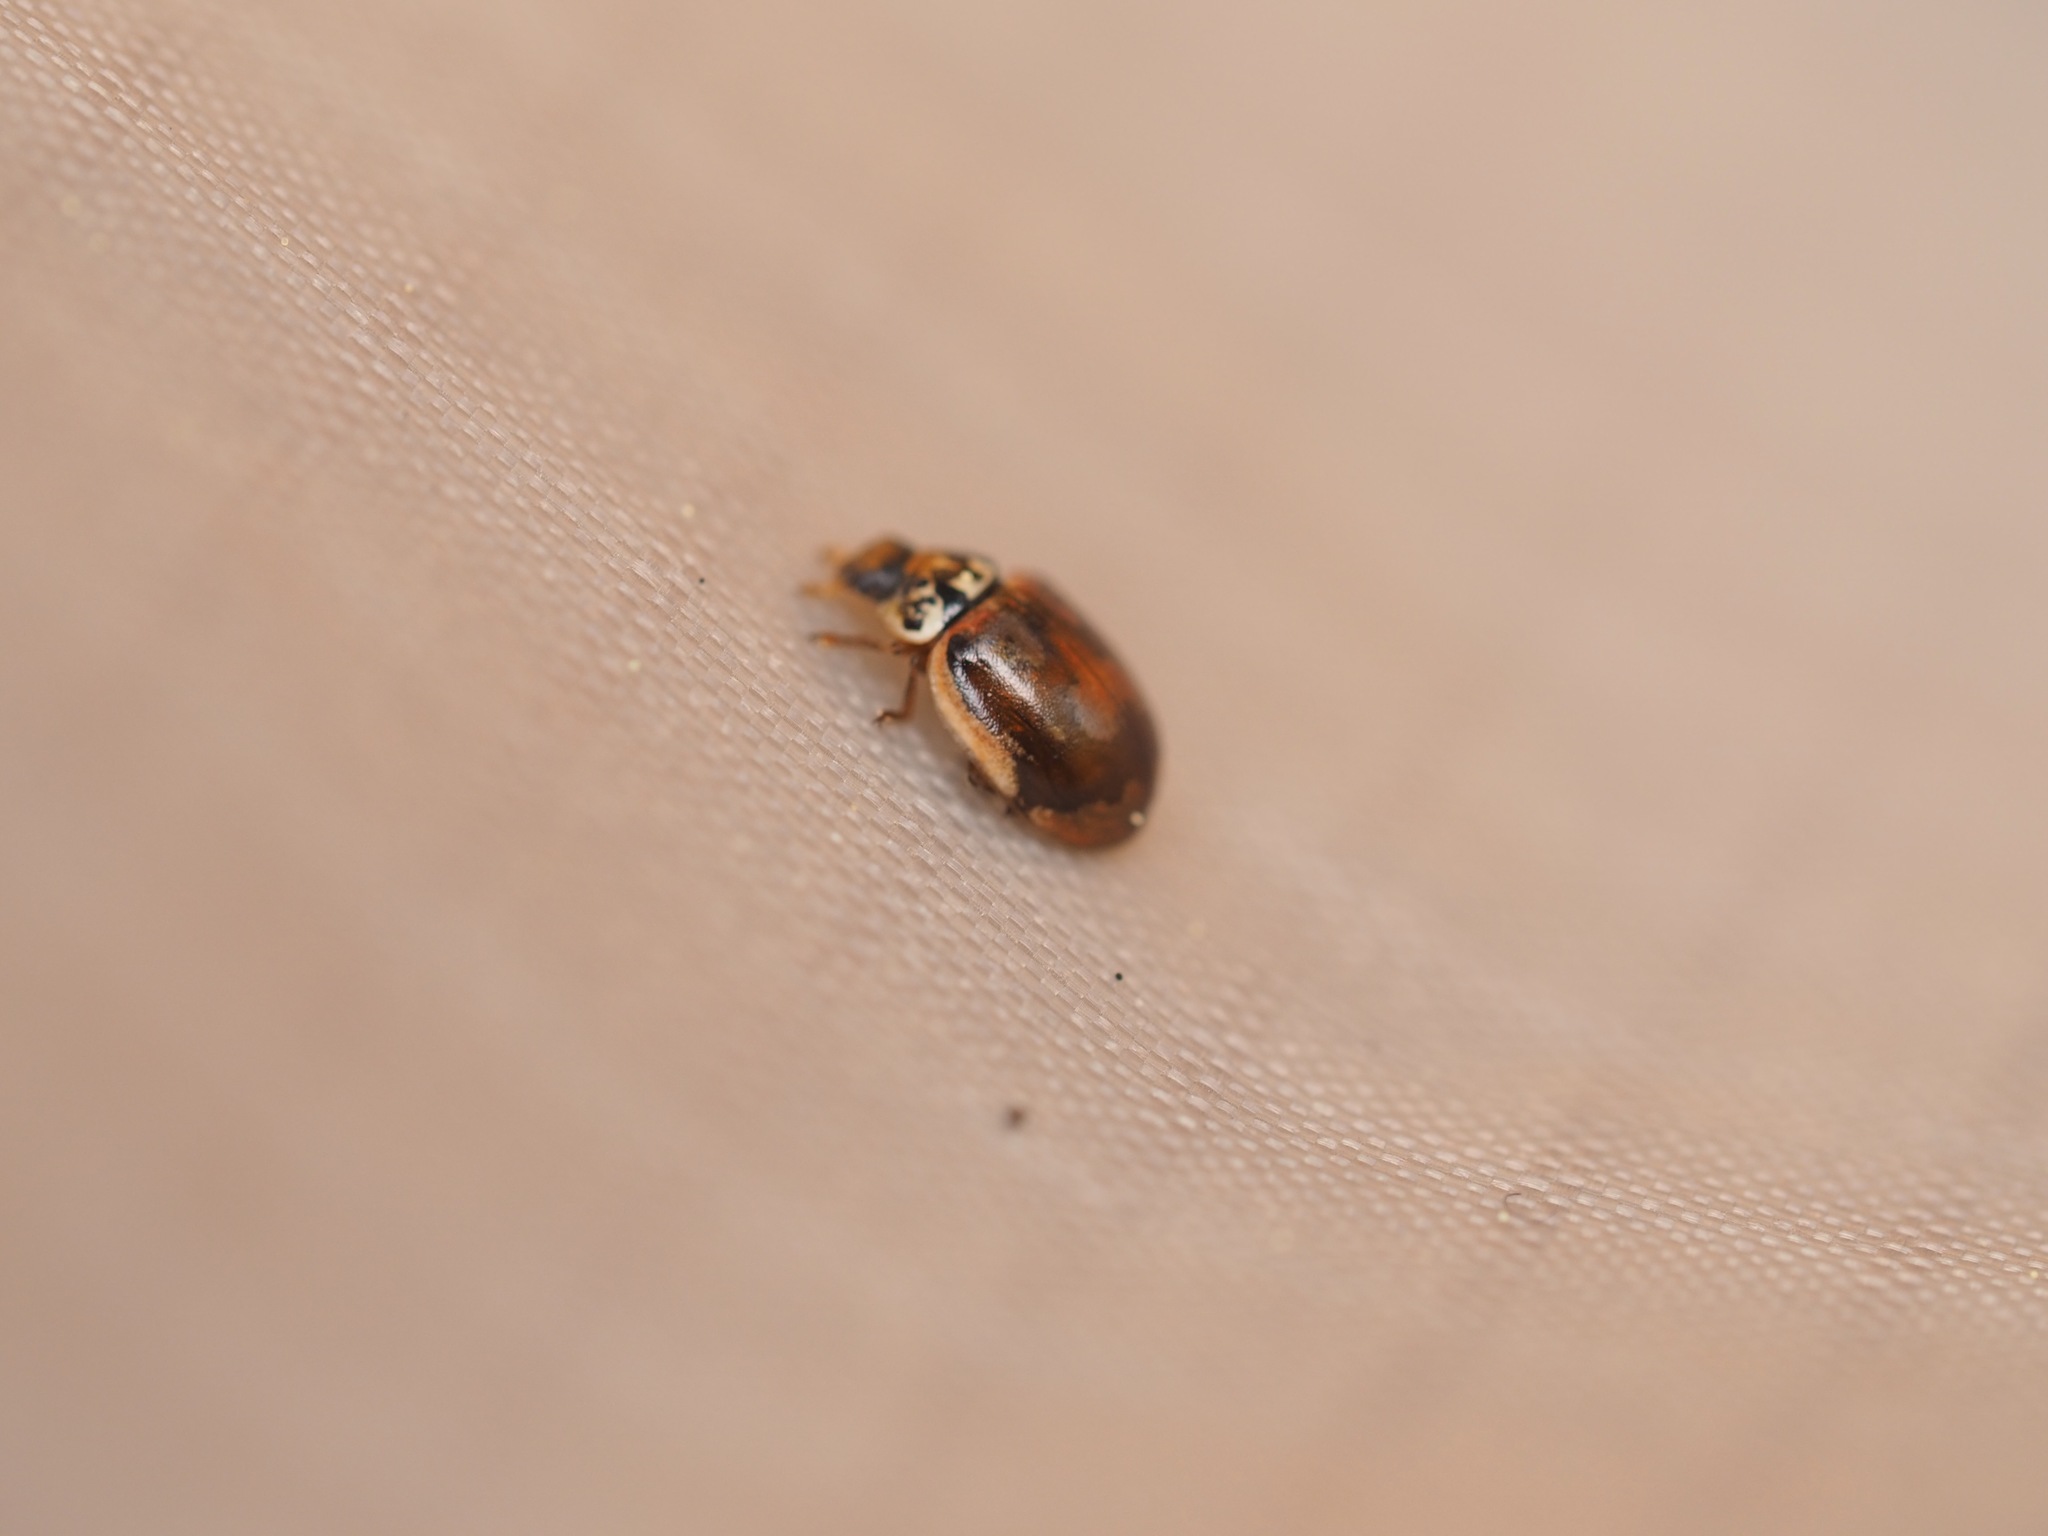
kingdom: Animalia
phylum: Arthropoda
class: Insecta
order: Coleoptera
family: Coccinellidae
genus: Mulsantina
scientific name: Mulsantina picta
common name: Painted ladybird
